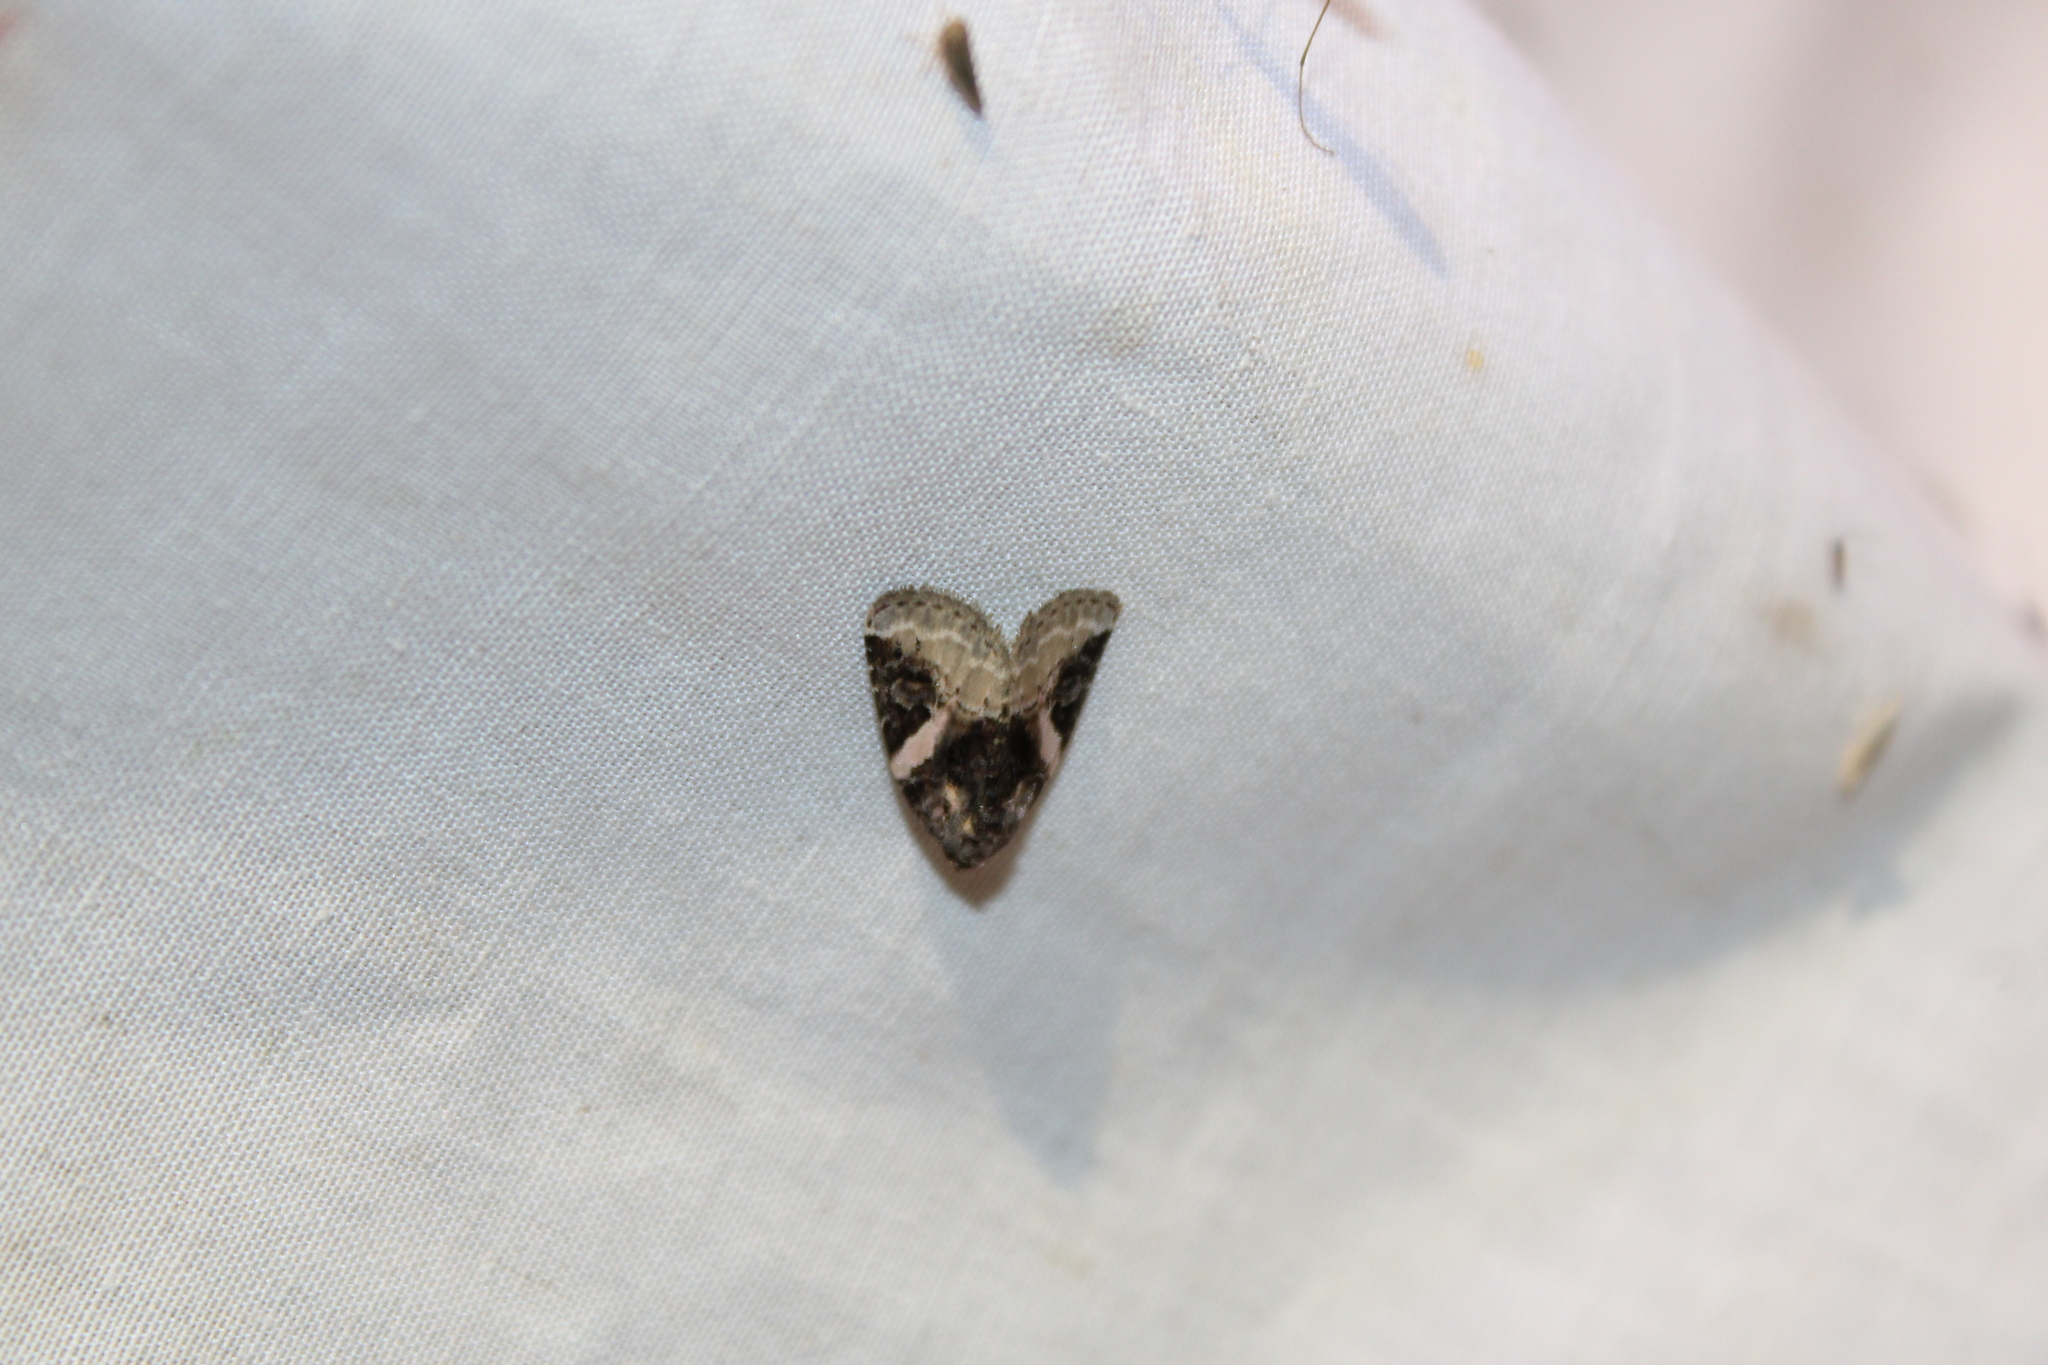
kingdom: Animalia
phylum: Arthropoda
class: Insecta
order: Lepidoptera
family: Noctuidae
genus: Pseudeustrotia
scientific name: Pseudeustrotia carneola
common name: Pink-barred lithacodia moth
